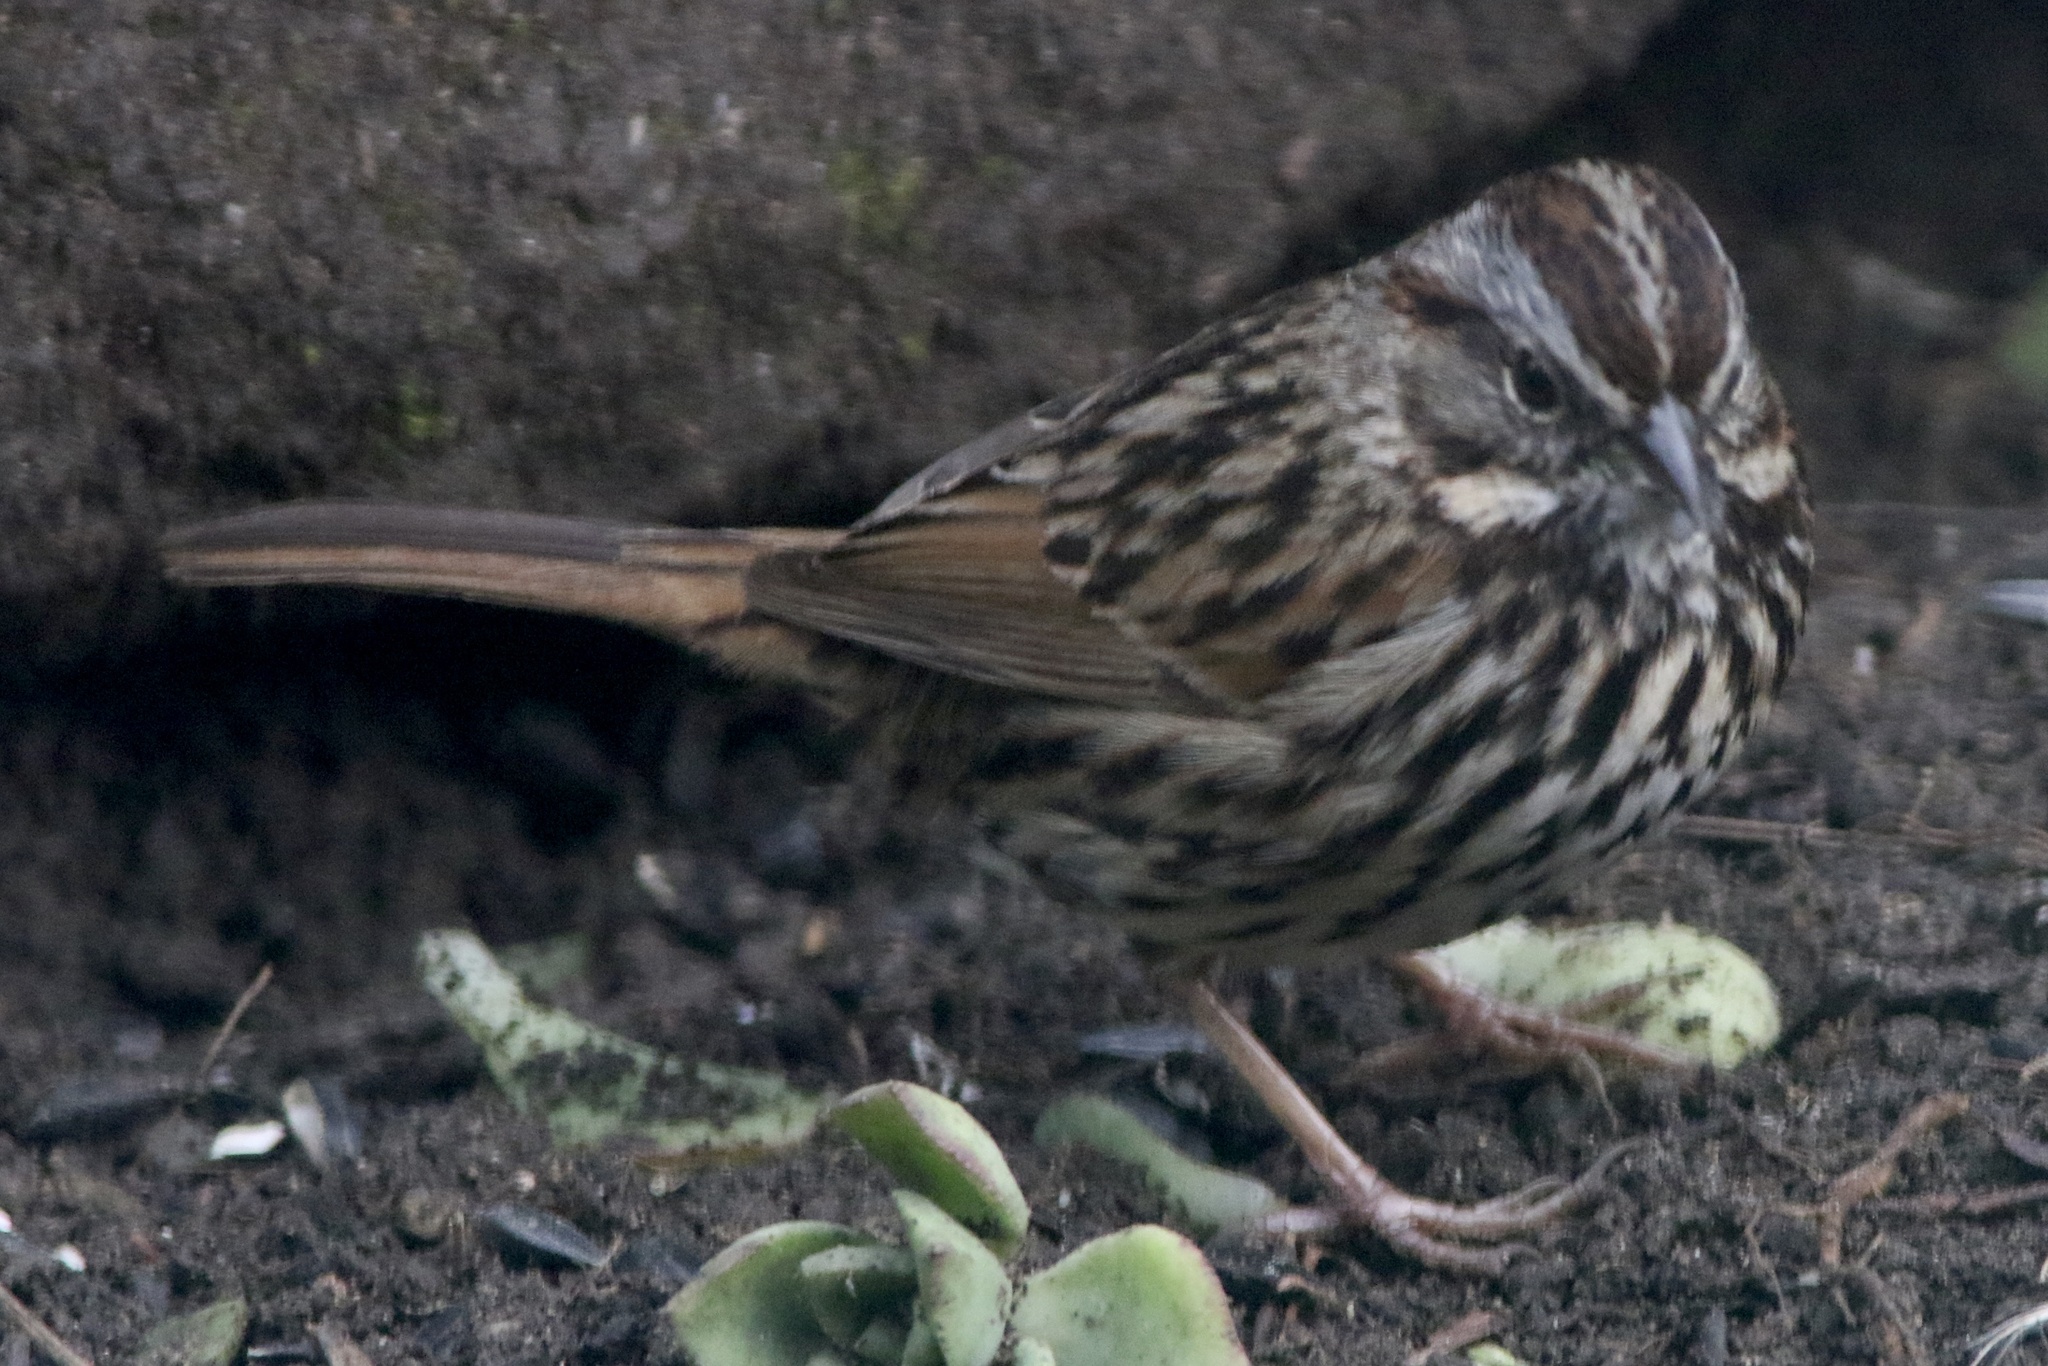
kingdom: Animalia
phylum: Chordata
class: Aves
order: Passeriformes
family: Passerellidae
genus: Melospiza
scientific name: Melospiza melodia
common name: Song sparrow
